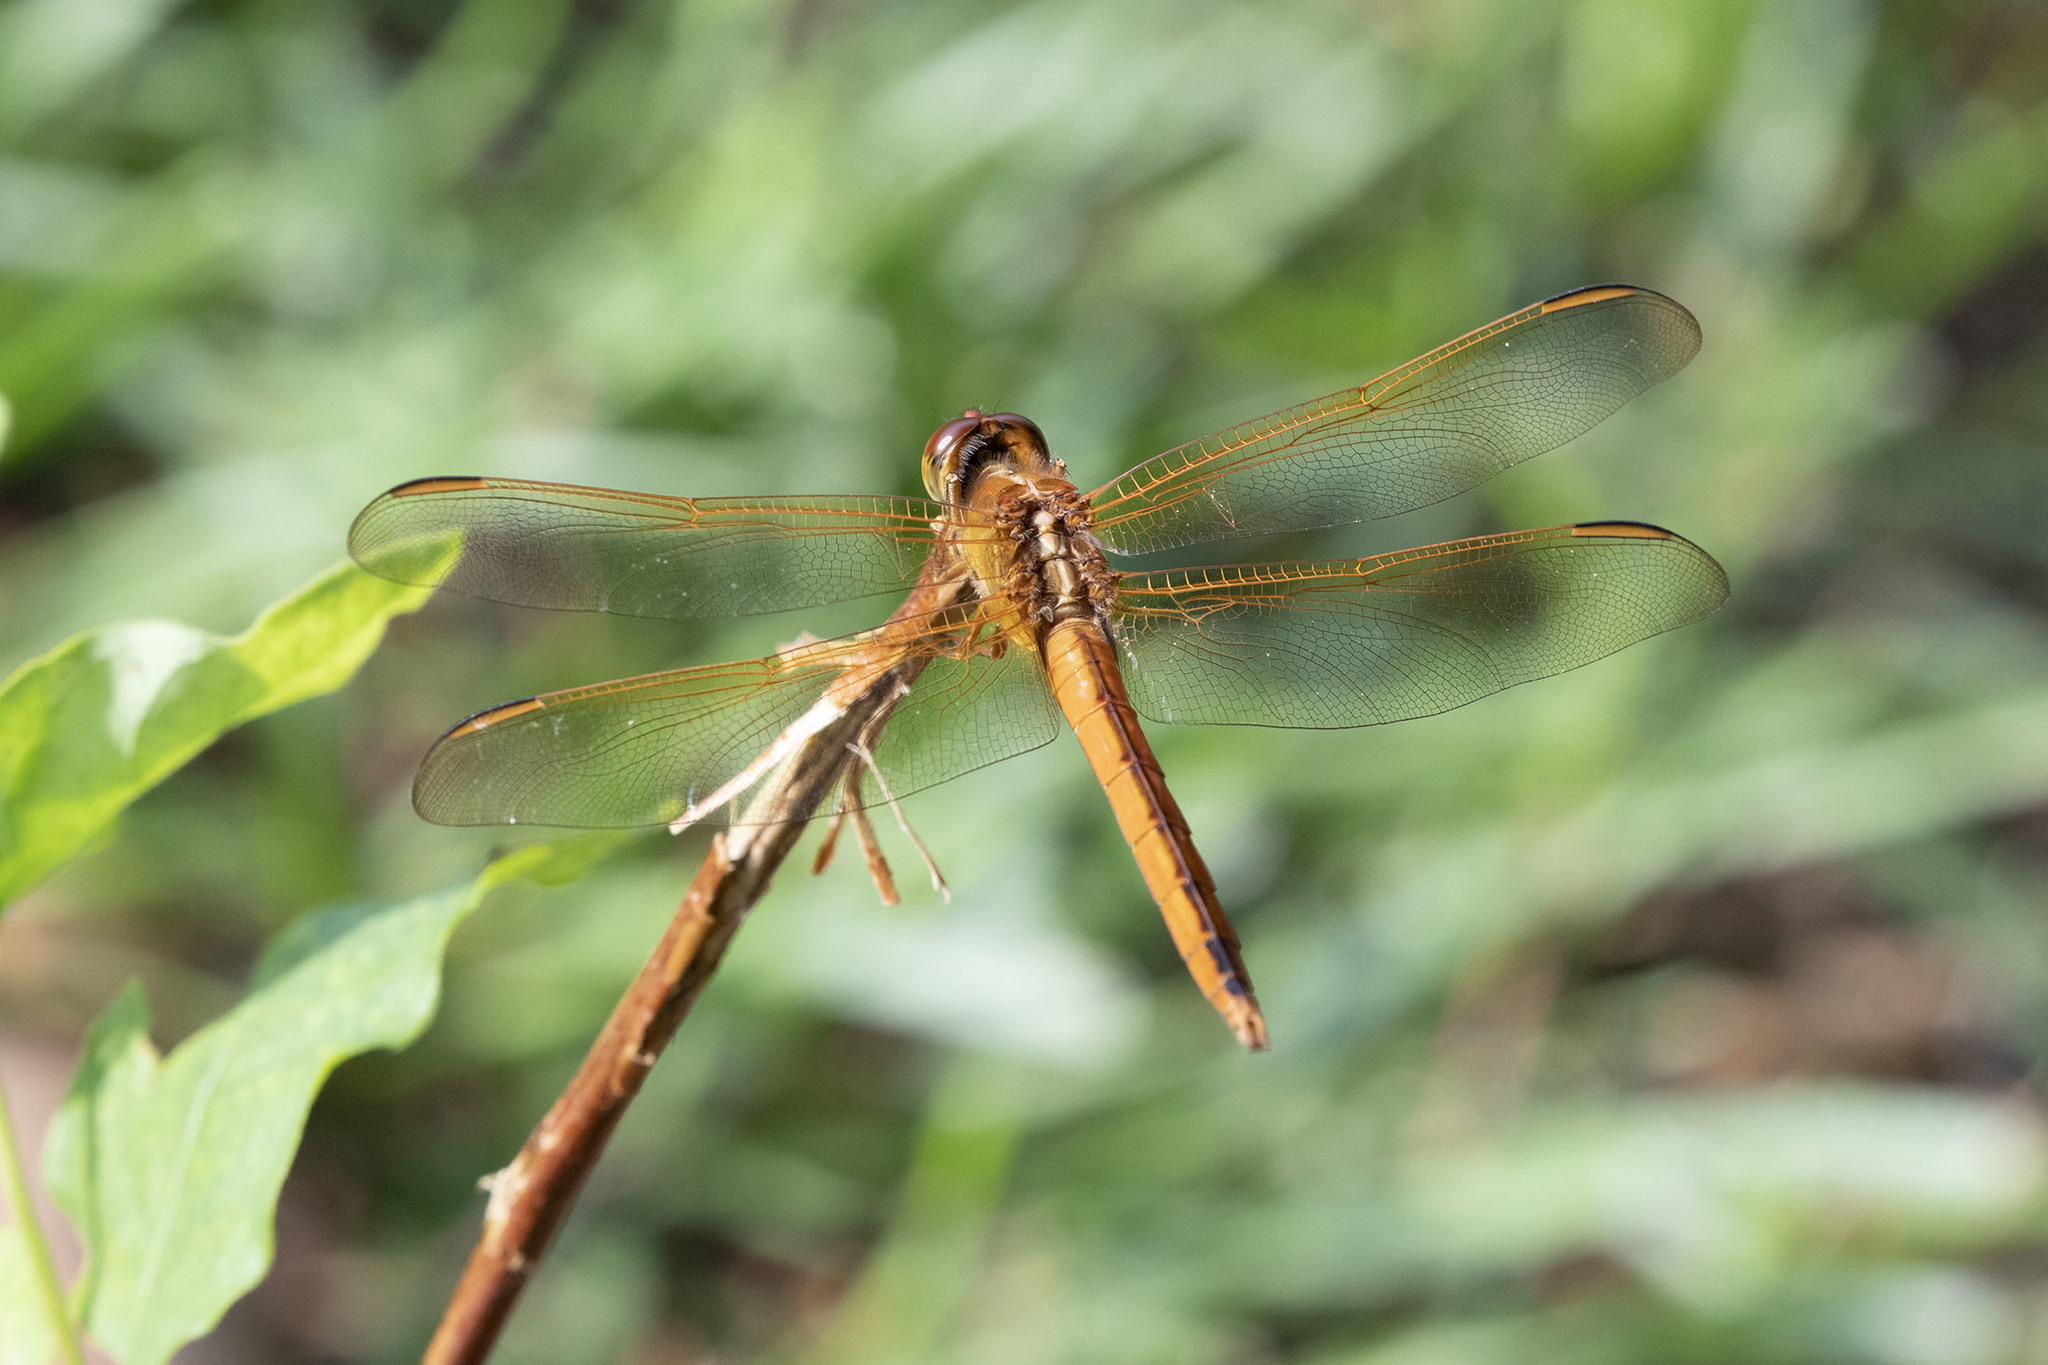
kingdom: Animalia
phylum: Arthropoda
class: Insecta
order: Odonata
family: Libellulidae
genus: Libellula
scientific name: Libellula needhami
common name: Needham's skimmer
